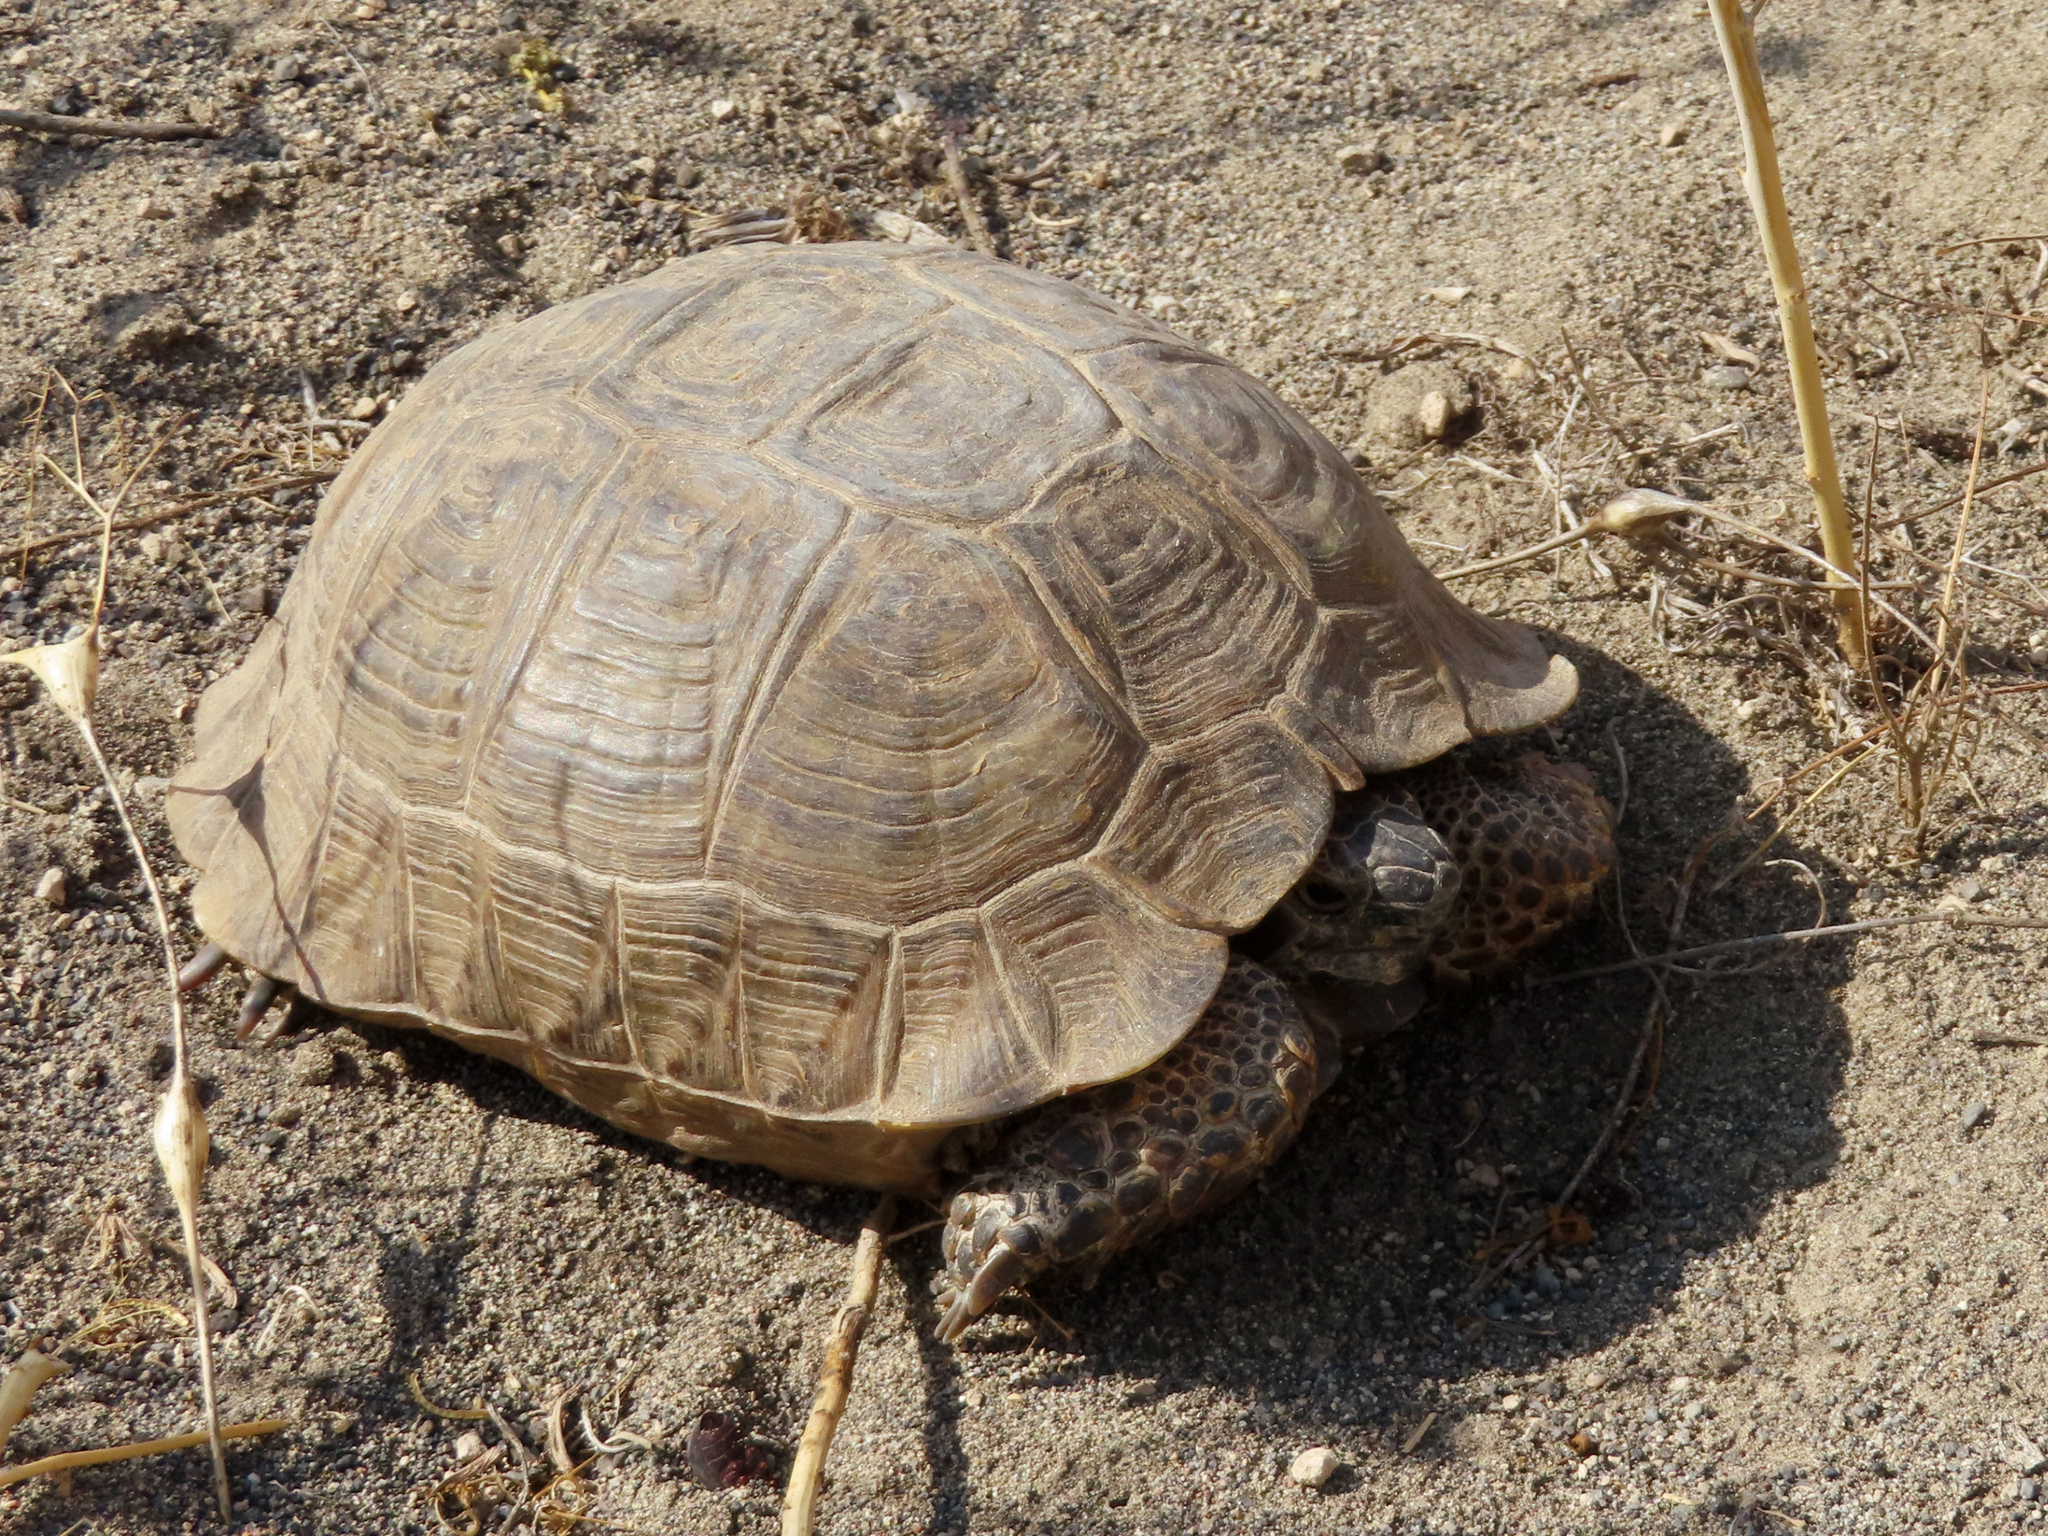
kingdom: Animalia
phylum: Chordata
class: Testudines
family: Testudinidae
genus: Testudo
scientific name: Testudo graeca
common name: Common tortoise
